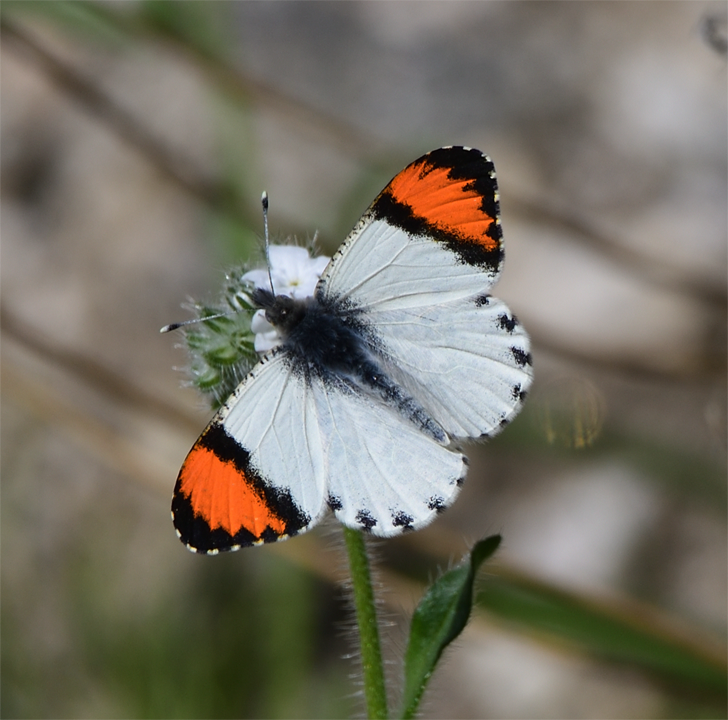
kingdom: Animalia
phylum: Arthropoda
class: Insecta
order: Lepidoptera
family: Pieridae
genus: Anthocharis
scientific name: Anthocharis sara
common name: Sara's orangetip
